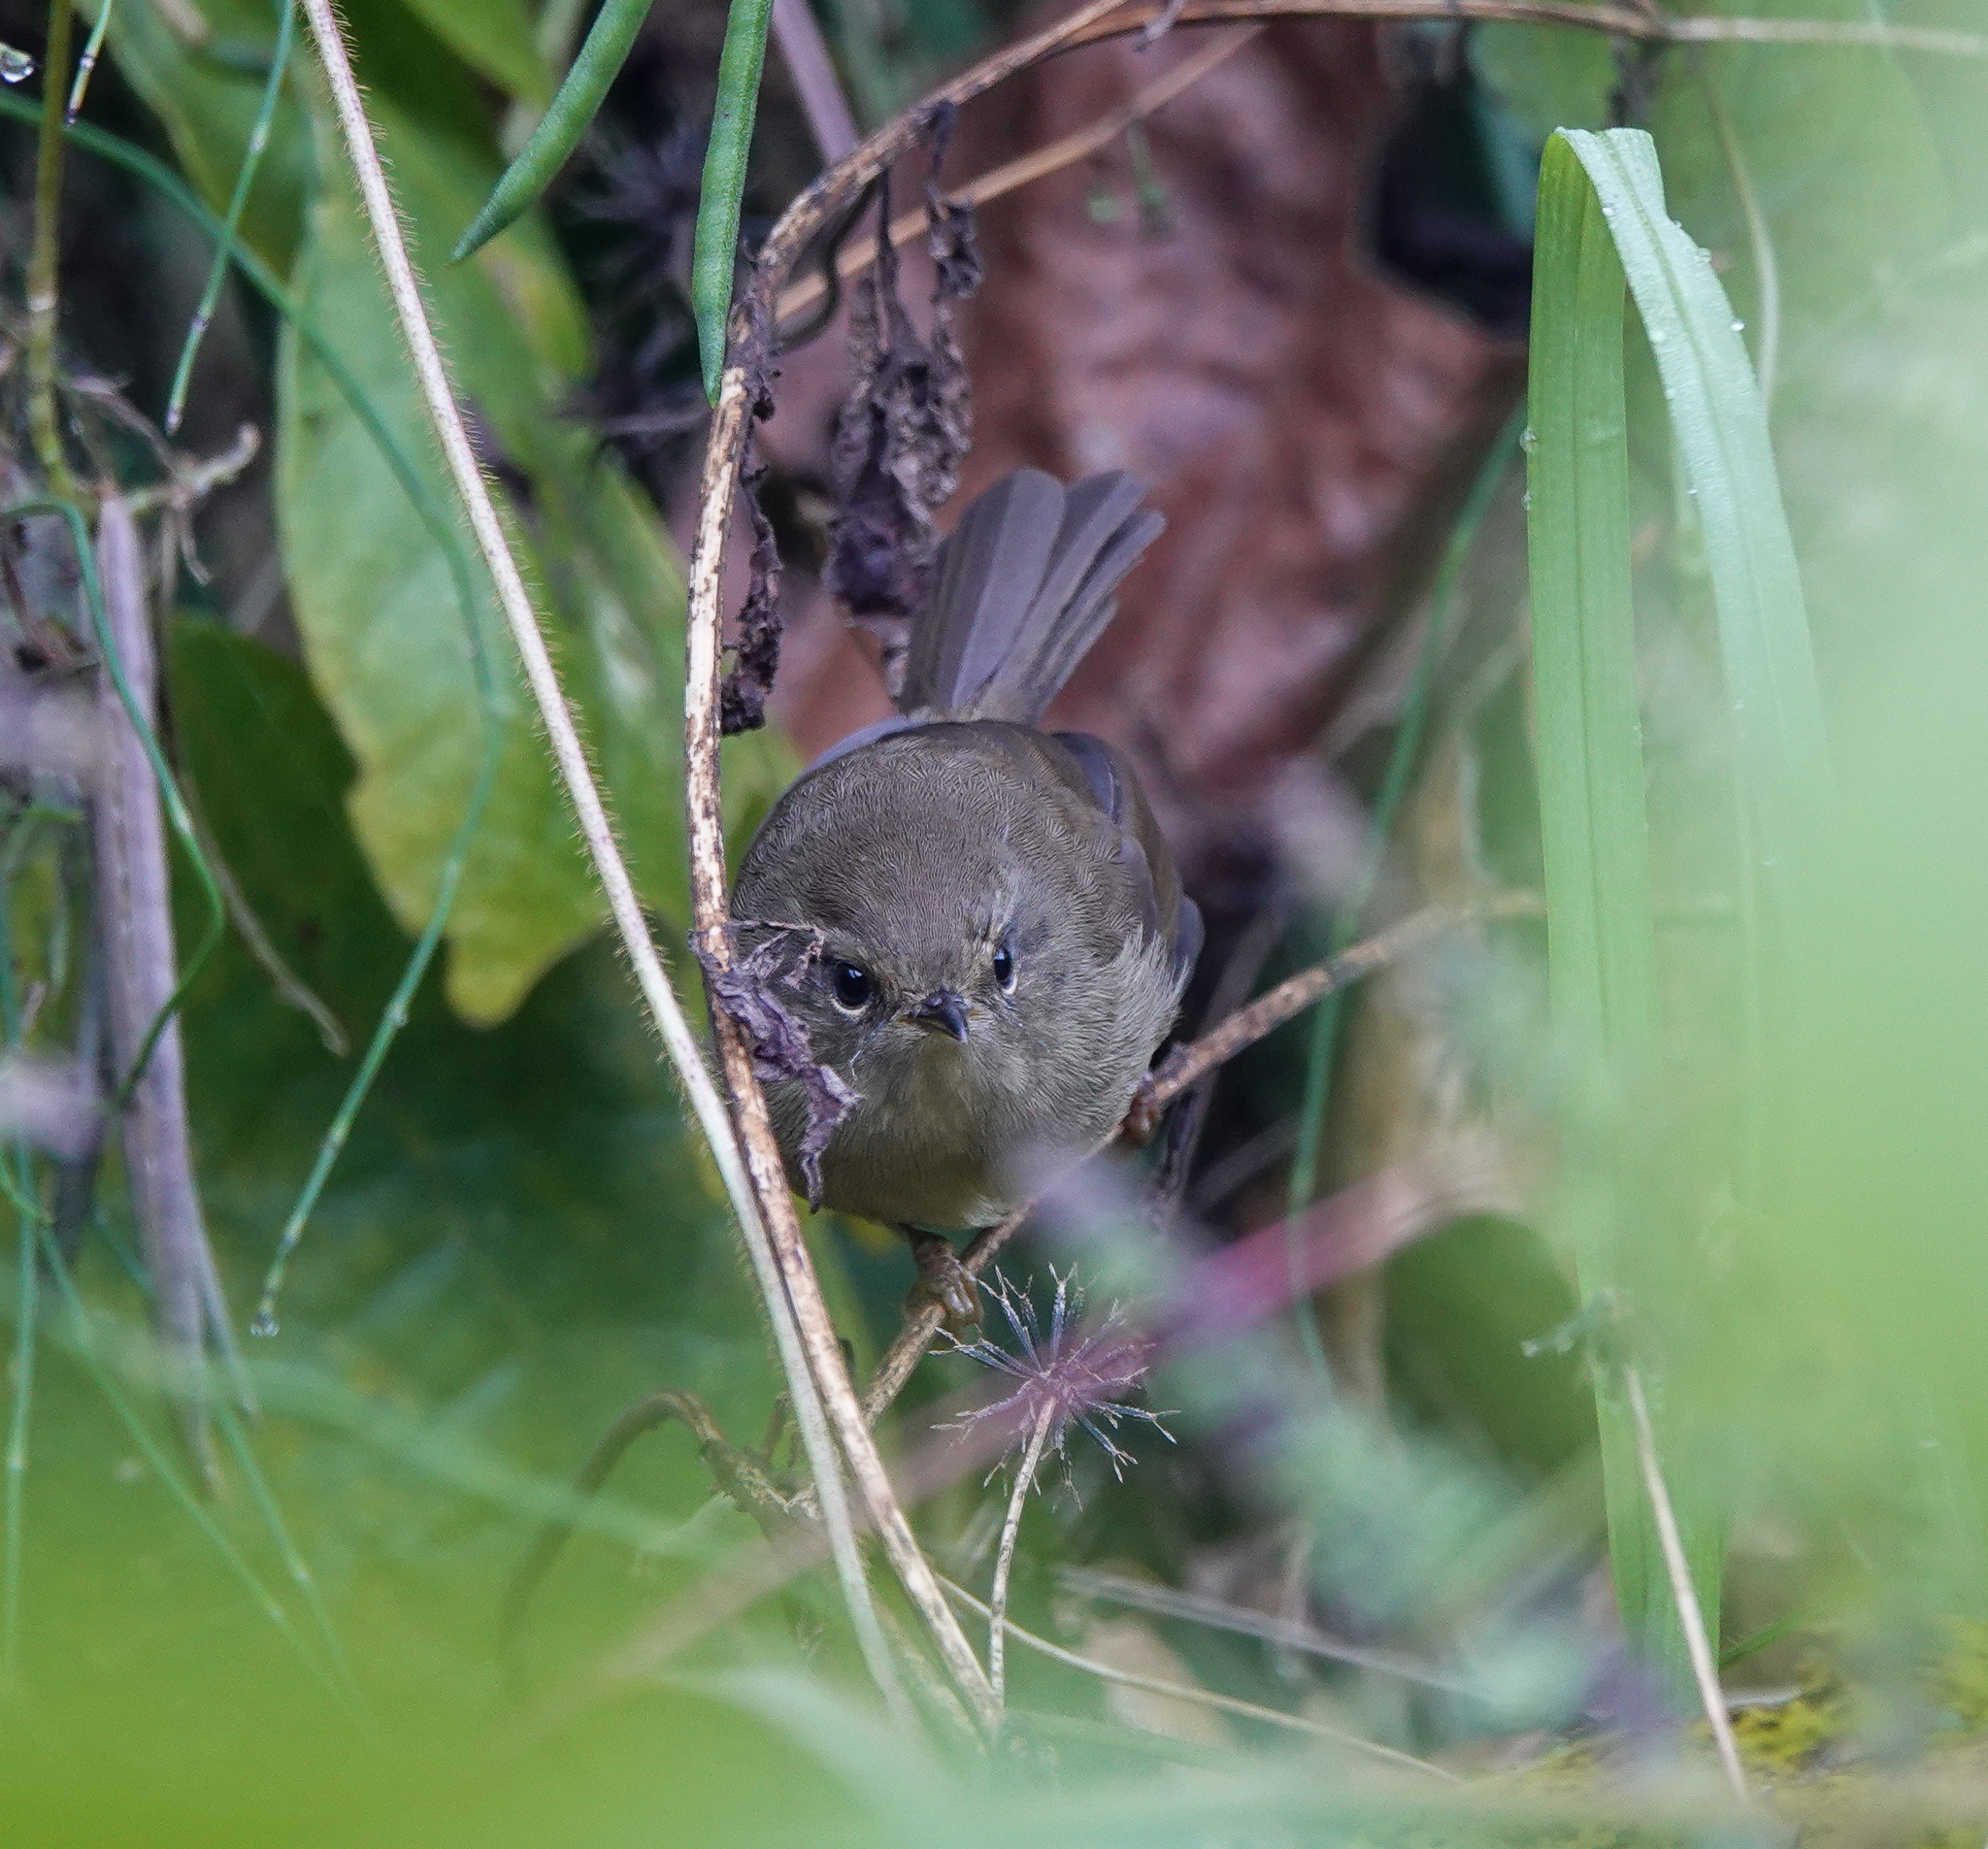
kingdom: Animalia
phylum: Chordata
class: Aves
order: Passeriformes
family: Cettiidae
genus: Horornis
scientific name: Horornis fortipes
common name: Brown-flanked bush warbler
